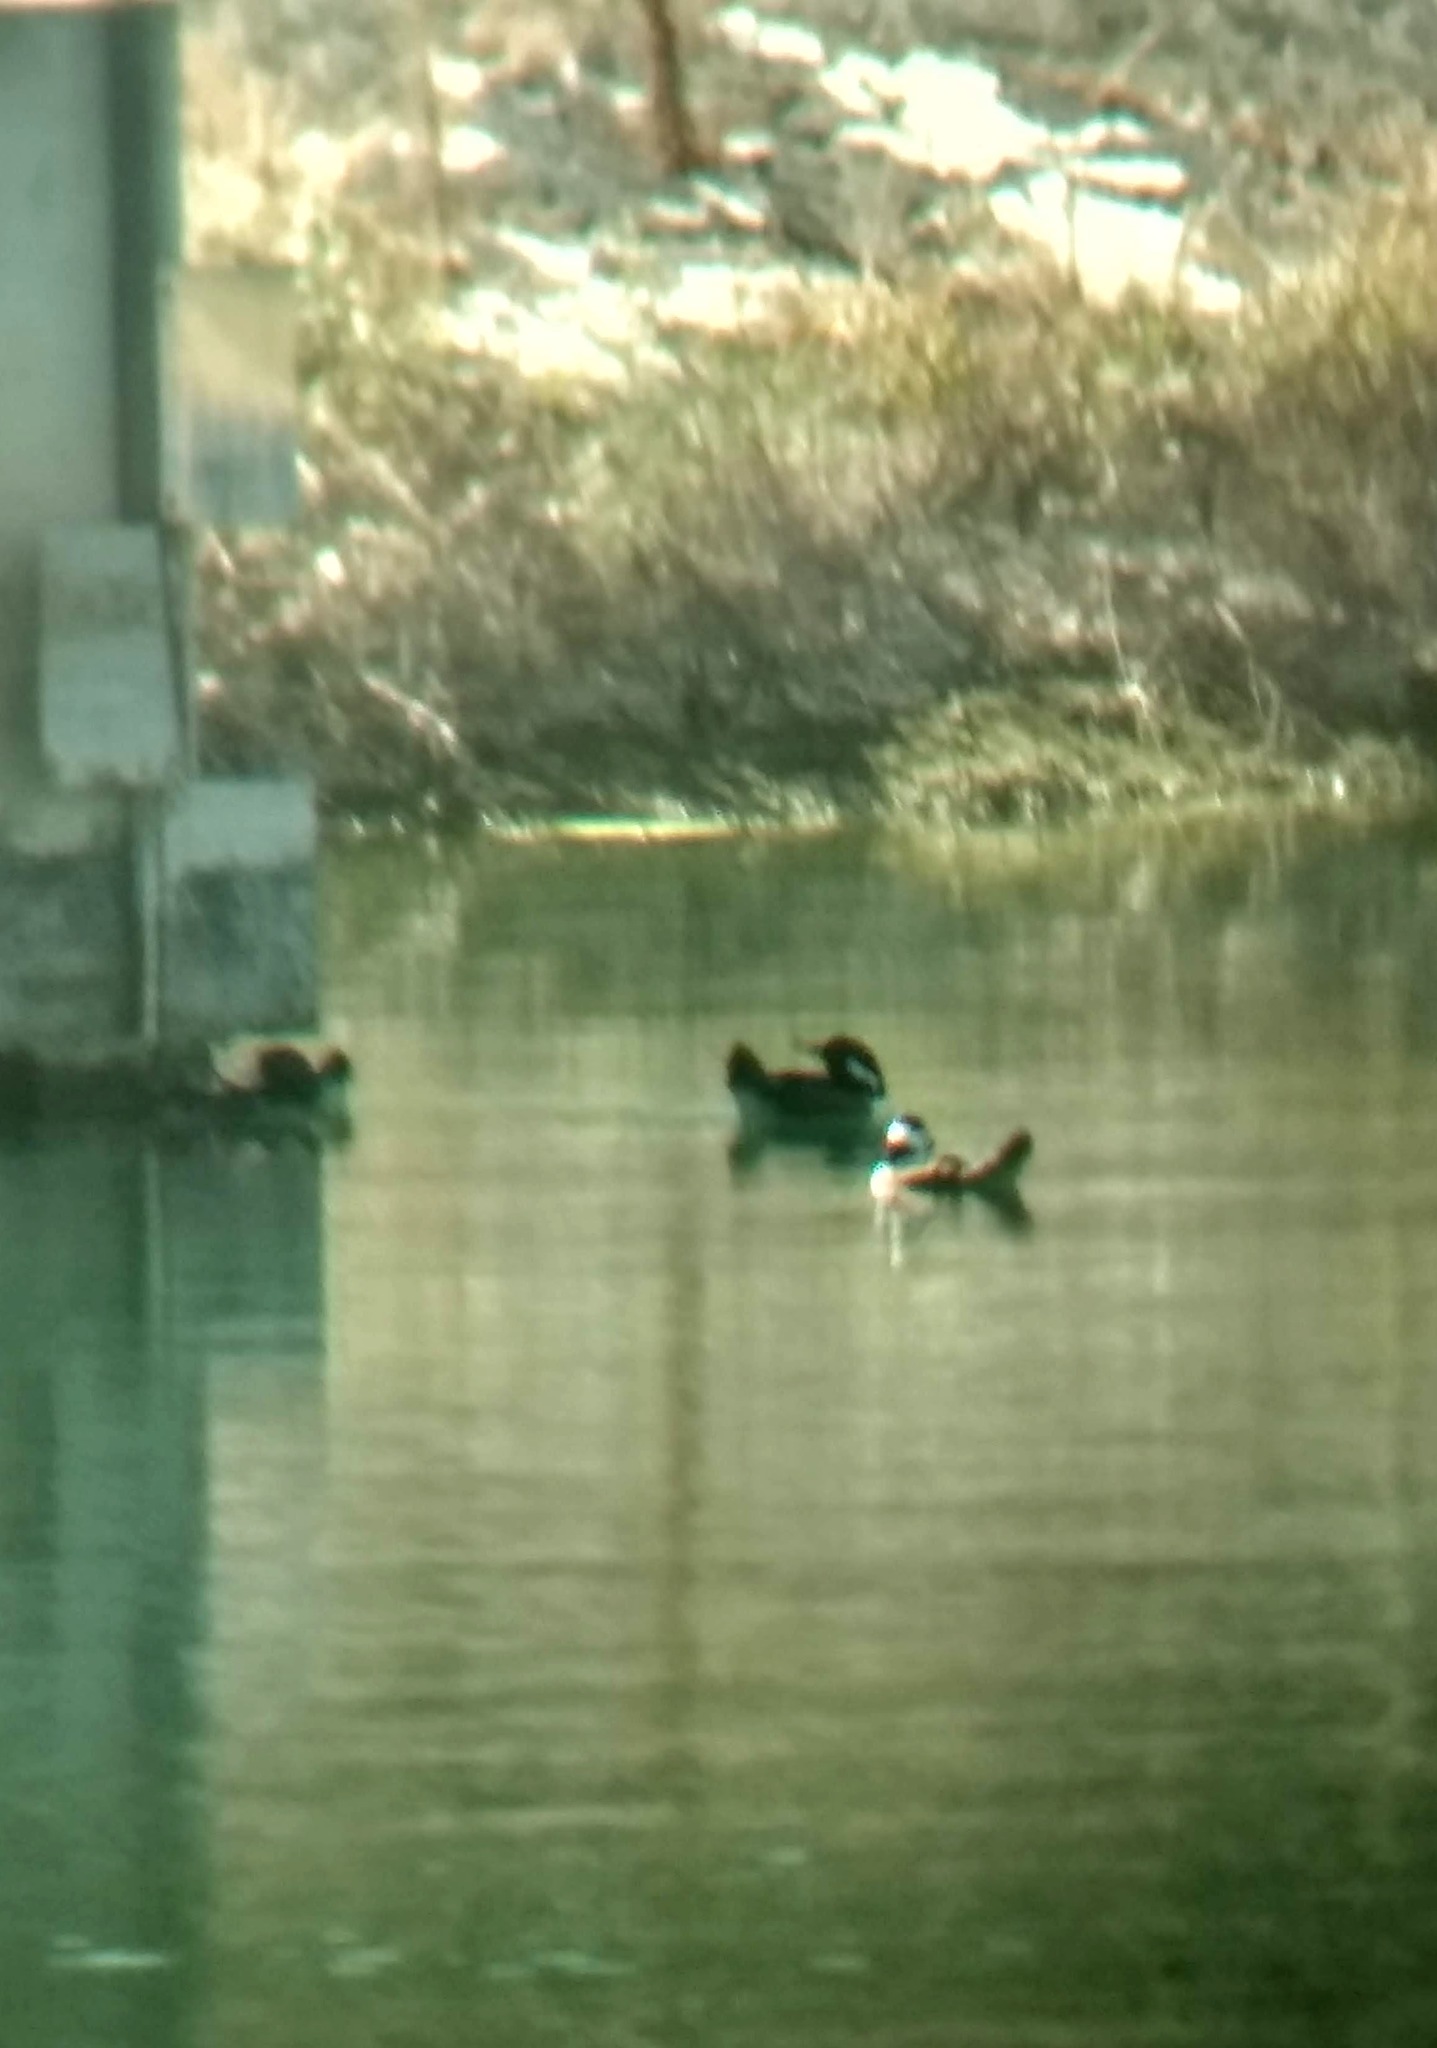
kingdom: Animalia
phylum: Chordata
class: Aves
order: Anseriformes
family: Anatidae
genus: Lophodytes
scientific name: Lophodytes cucullatus
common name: Hooded merganser
